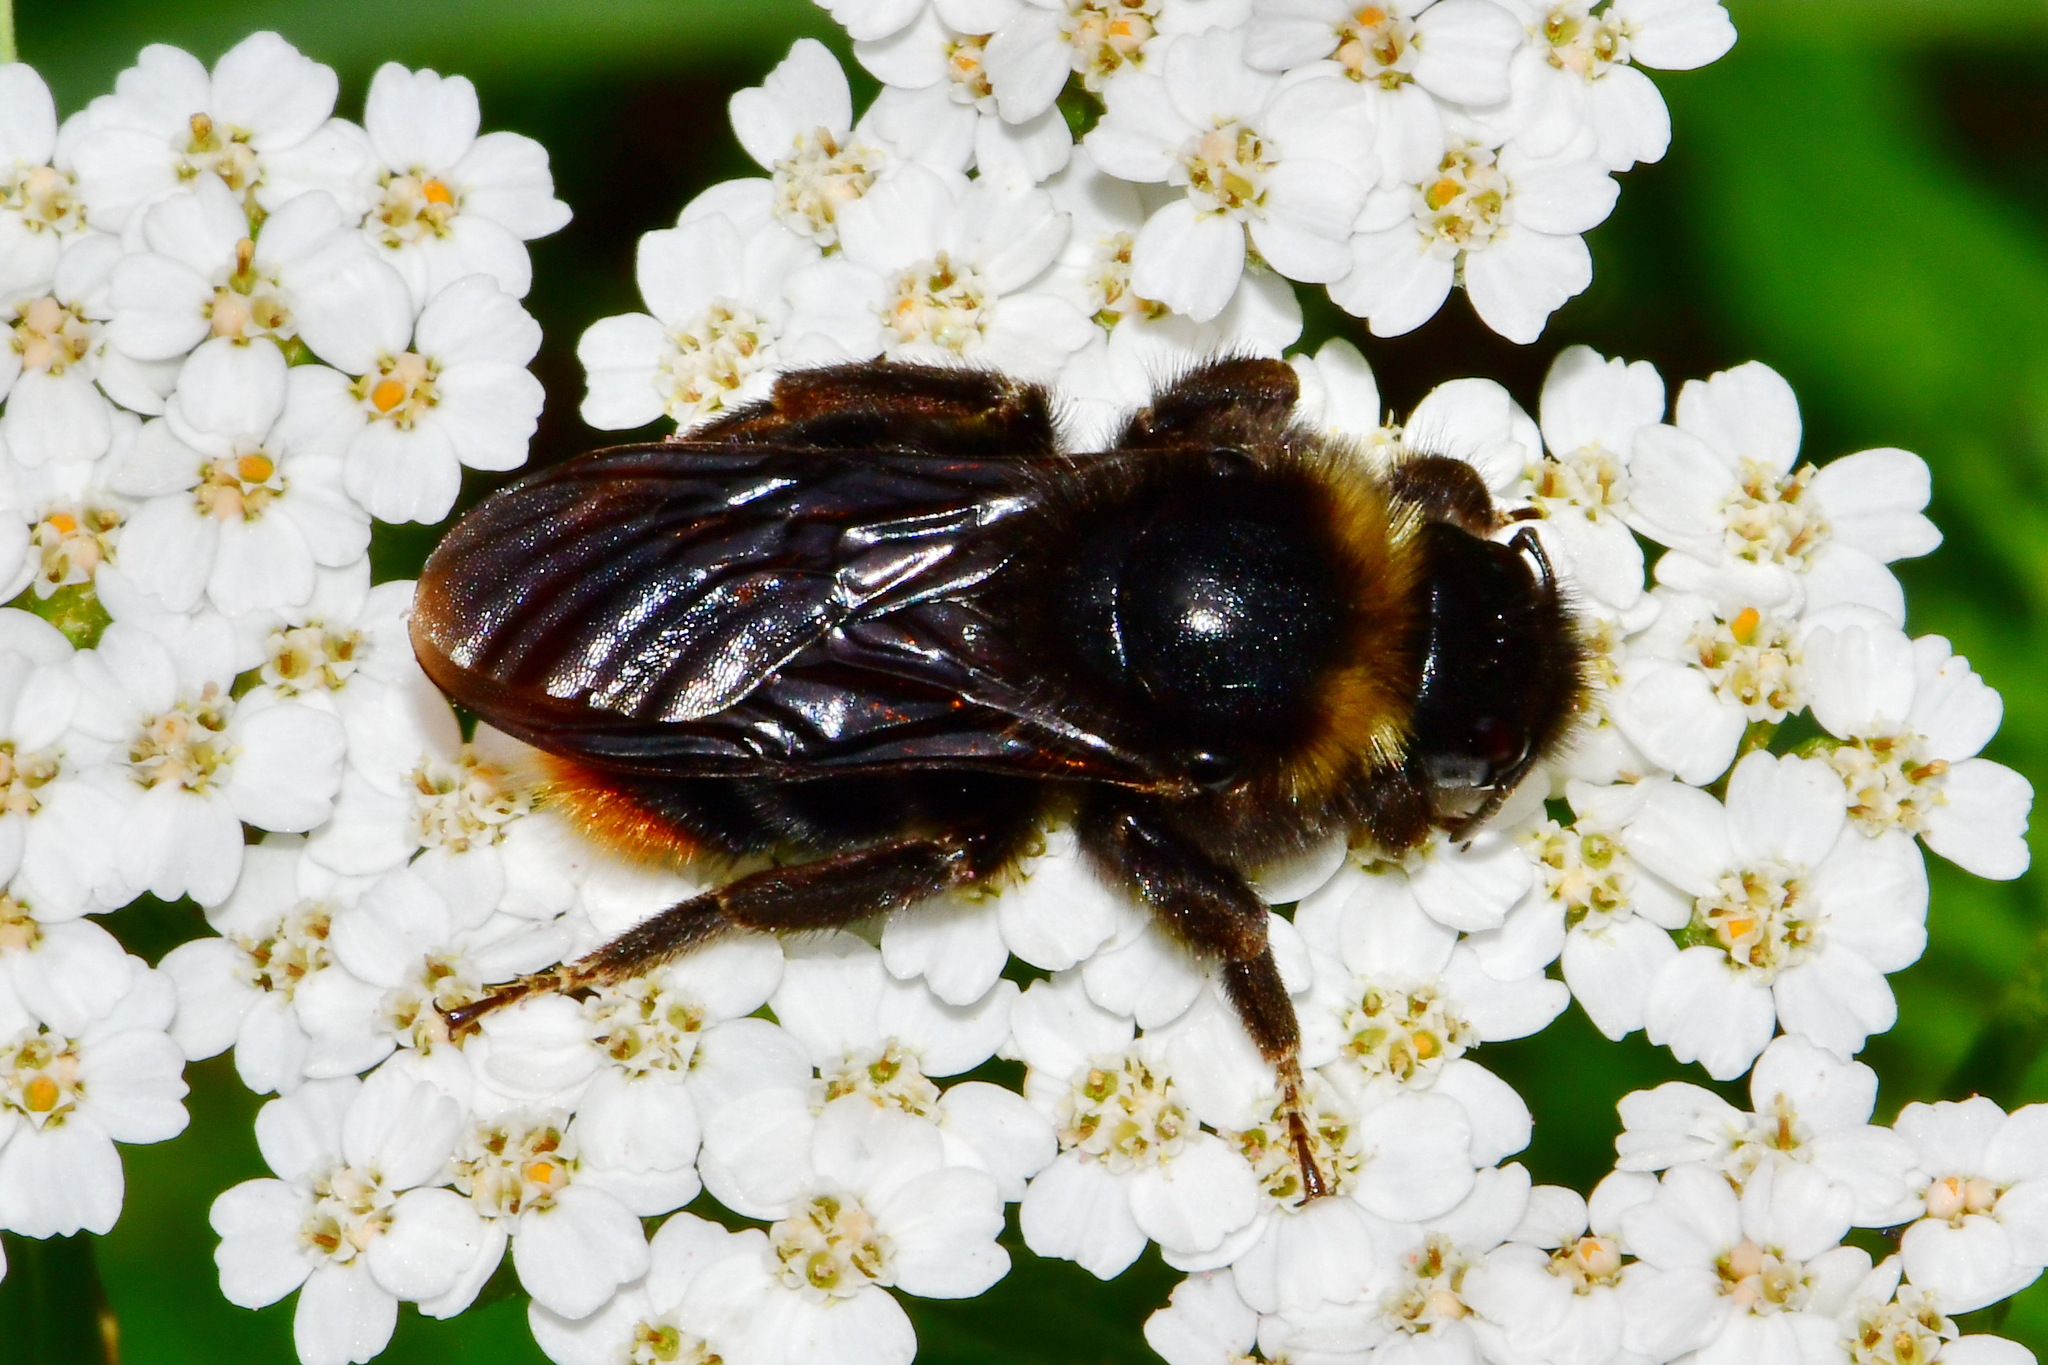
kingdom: Animalia
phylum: Arthropoda
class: Insecta
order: Hymenoptera
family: Apidae
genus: Bombus
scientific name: Bombus rupestris
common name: Hill cuckoo-bee
